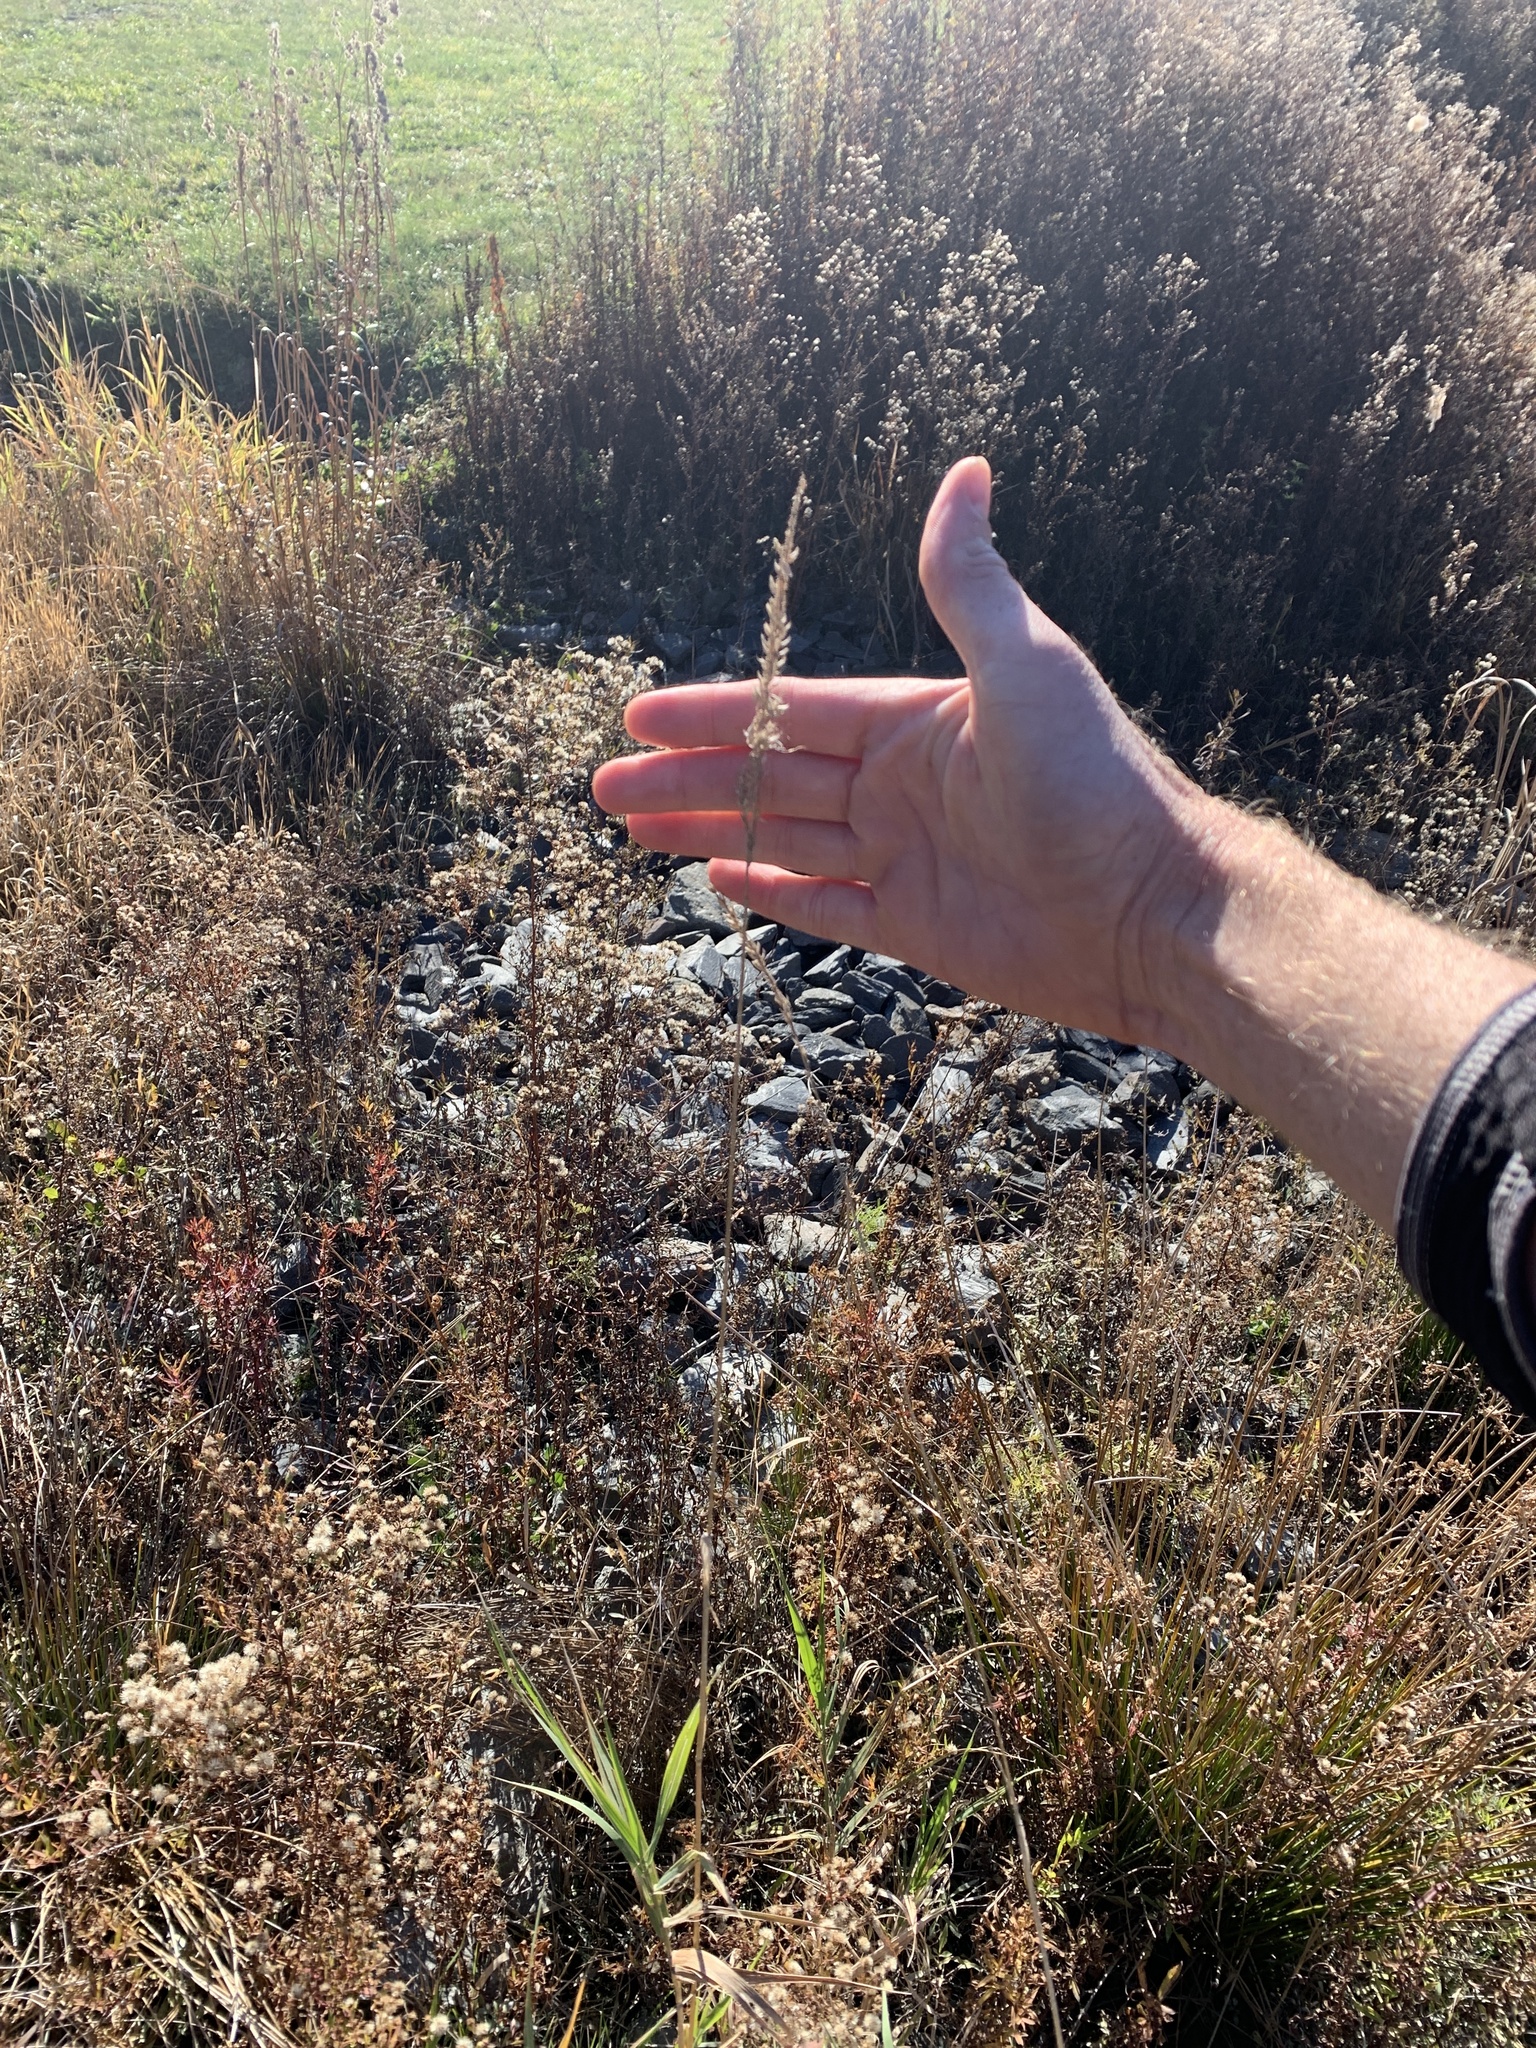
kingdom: Plantae
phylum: Tracheophyta
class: Liliopsida
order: Poales
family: Poaceae
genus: Phalaris
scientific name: Phalaris arundinacea
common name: Reed canary-grass
